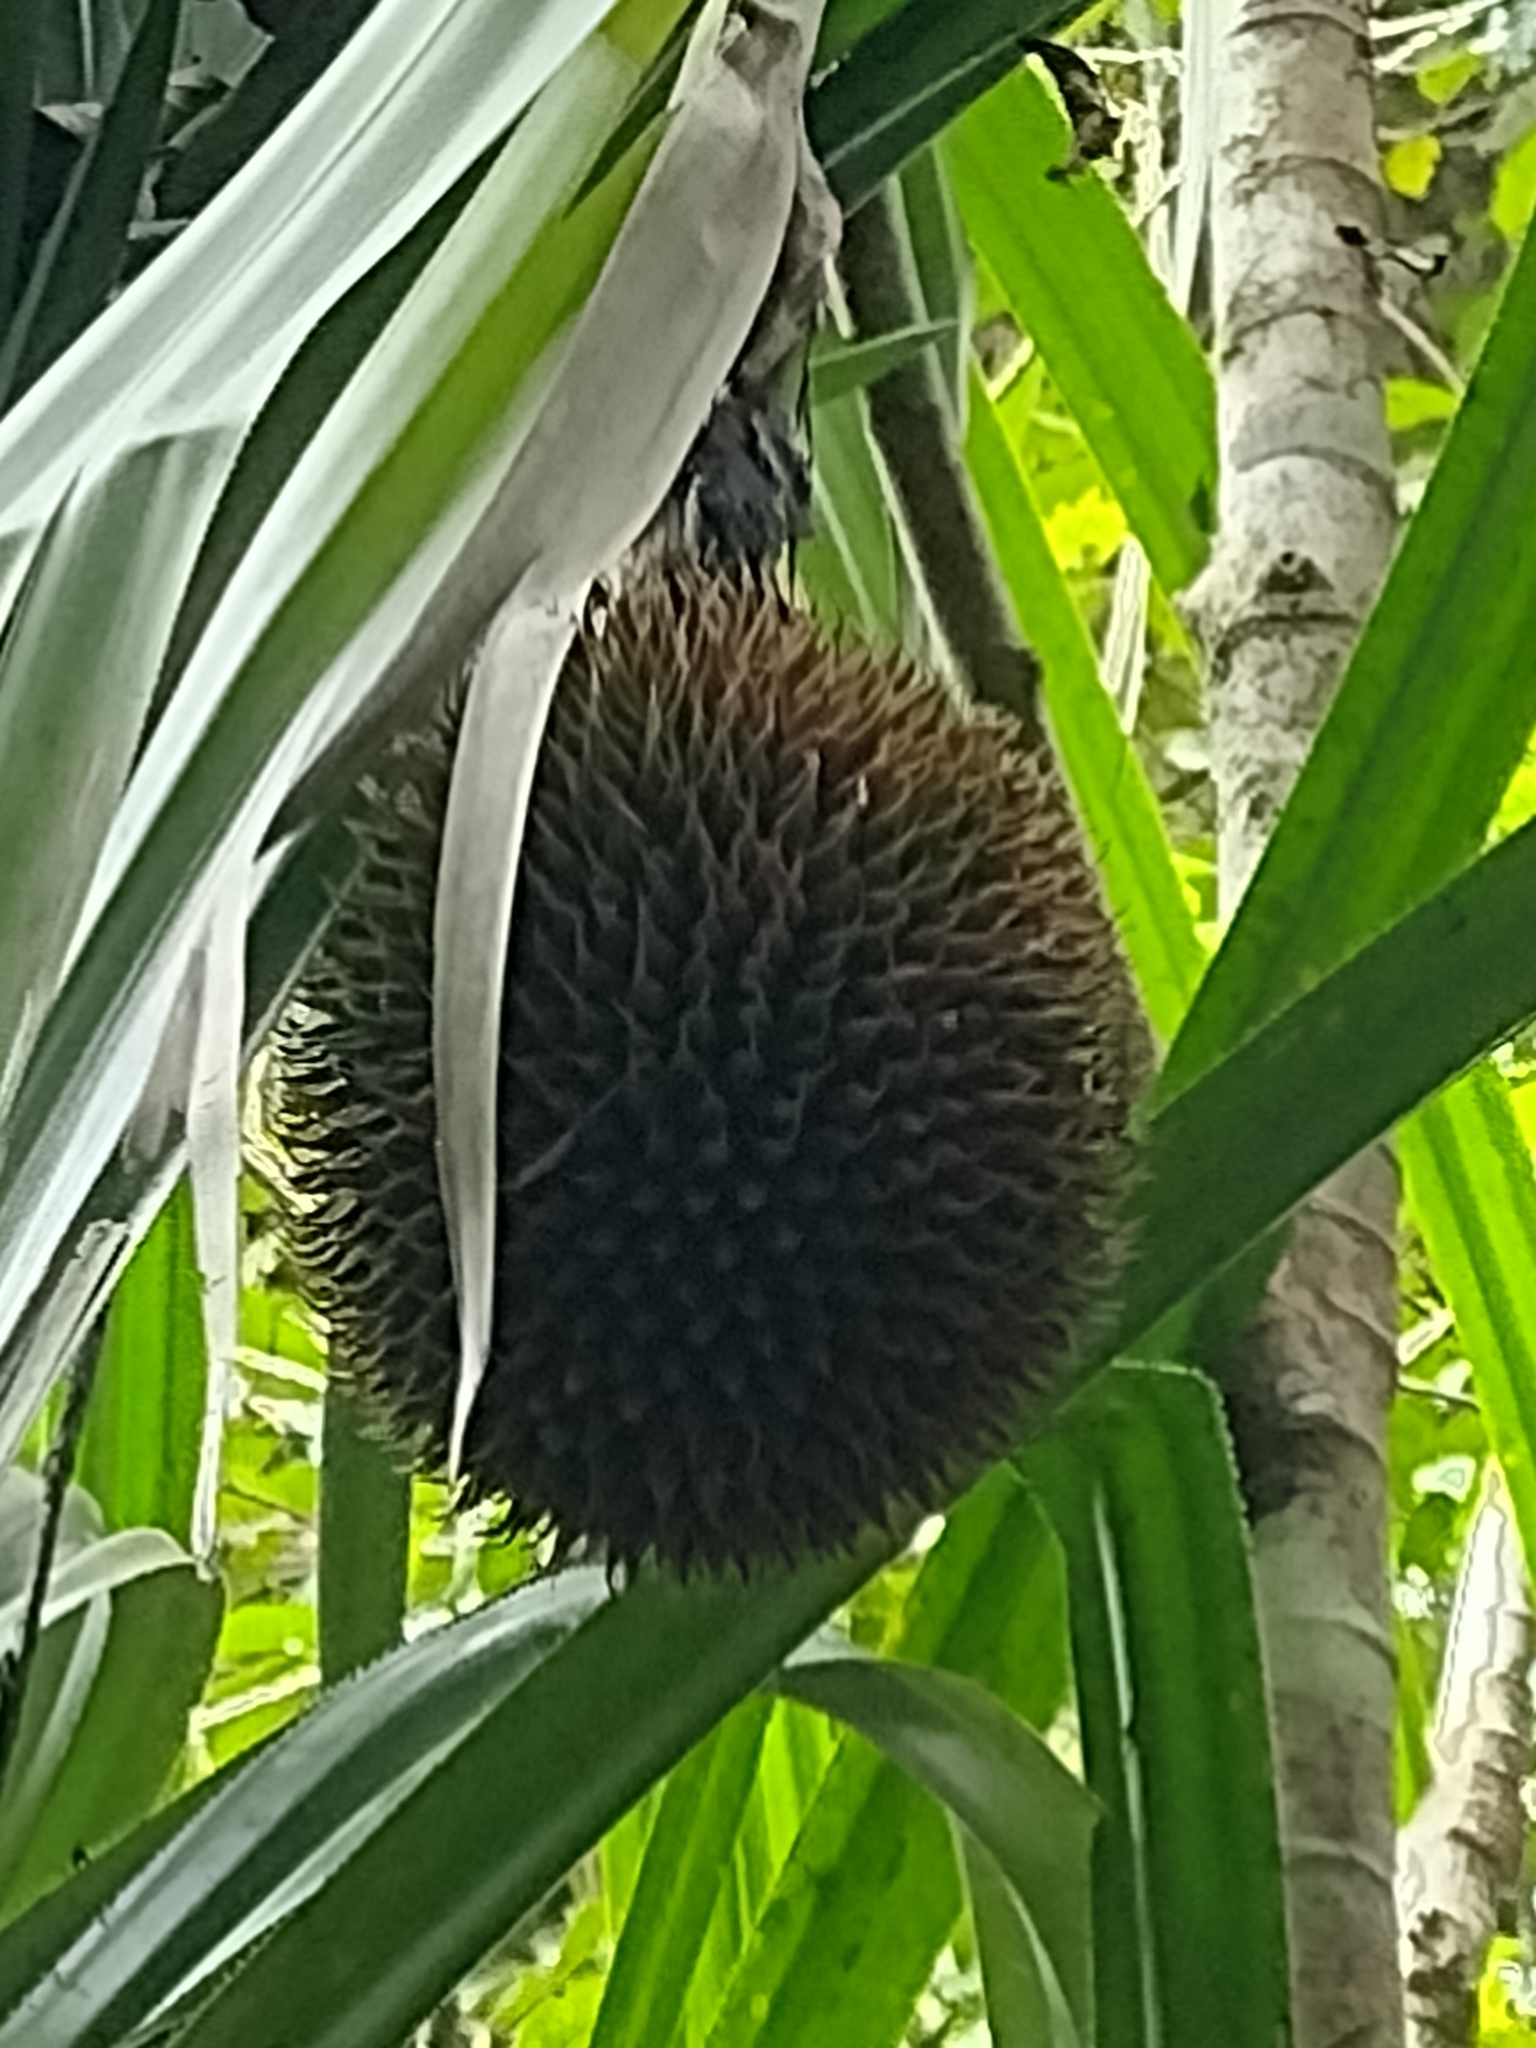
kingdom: Plantae
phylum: Tracheophyta
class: Liliopsida
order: Pandanales
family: Pandanaceae
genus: Benstonea
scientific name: Benstonea monticola
